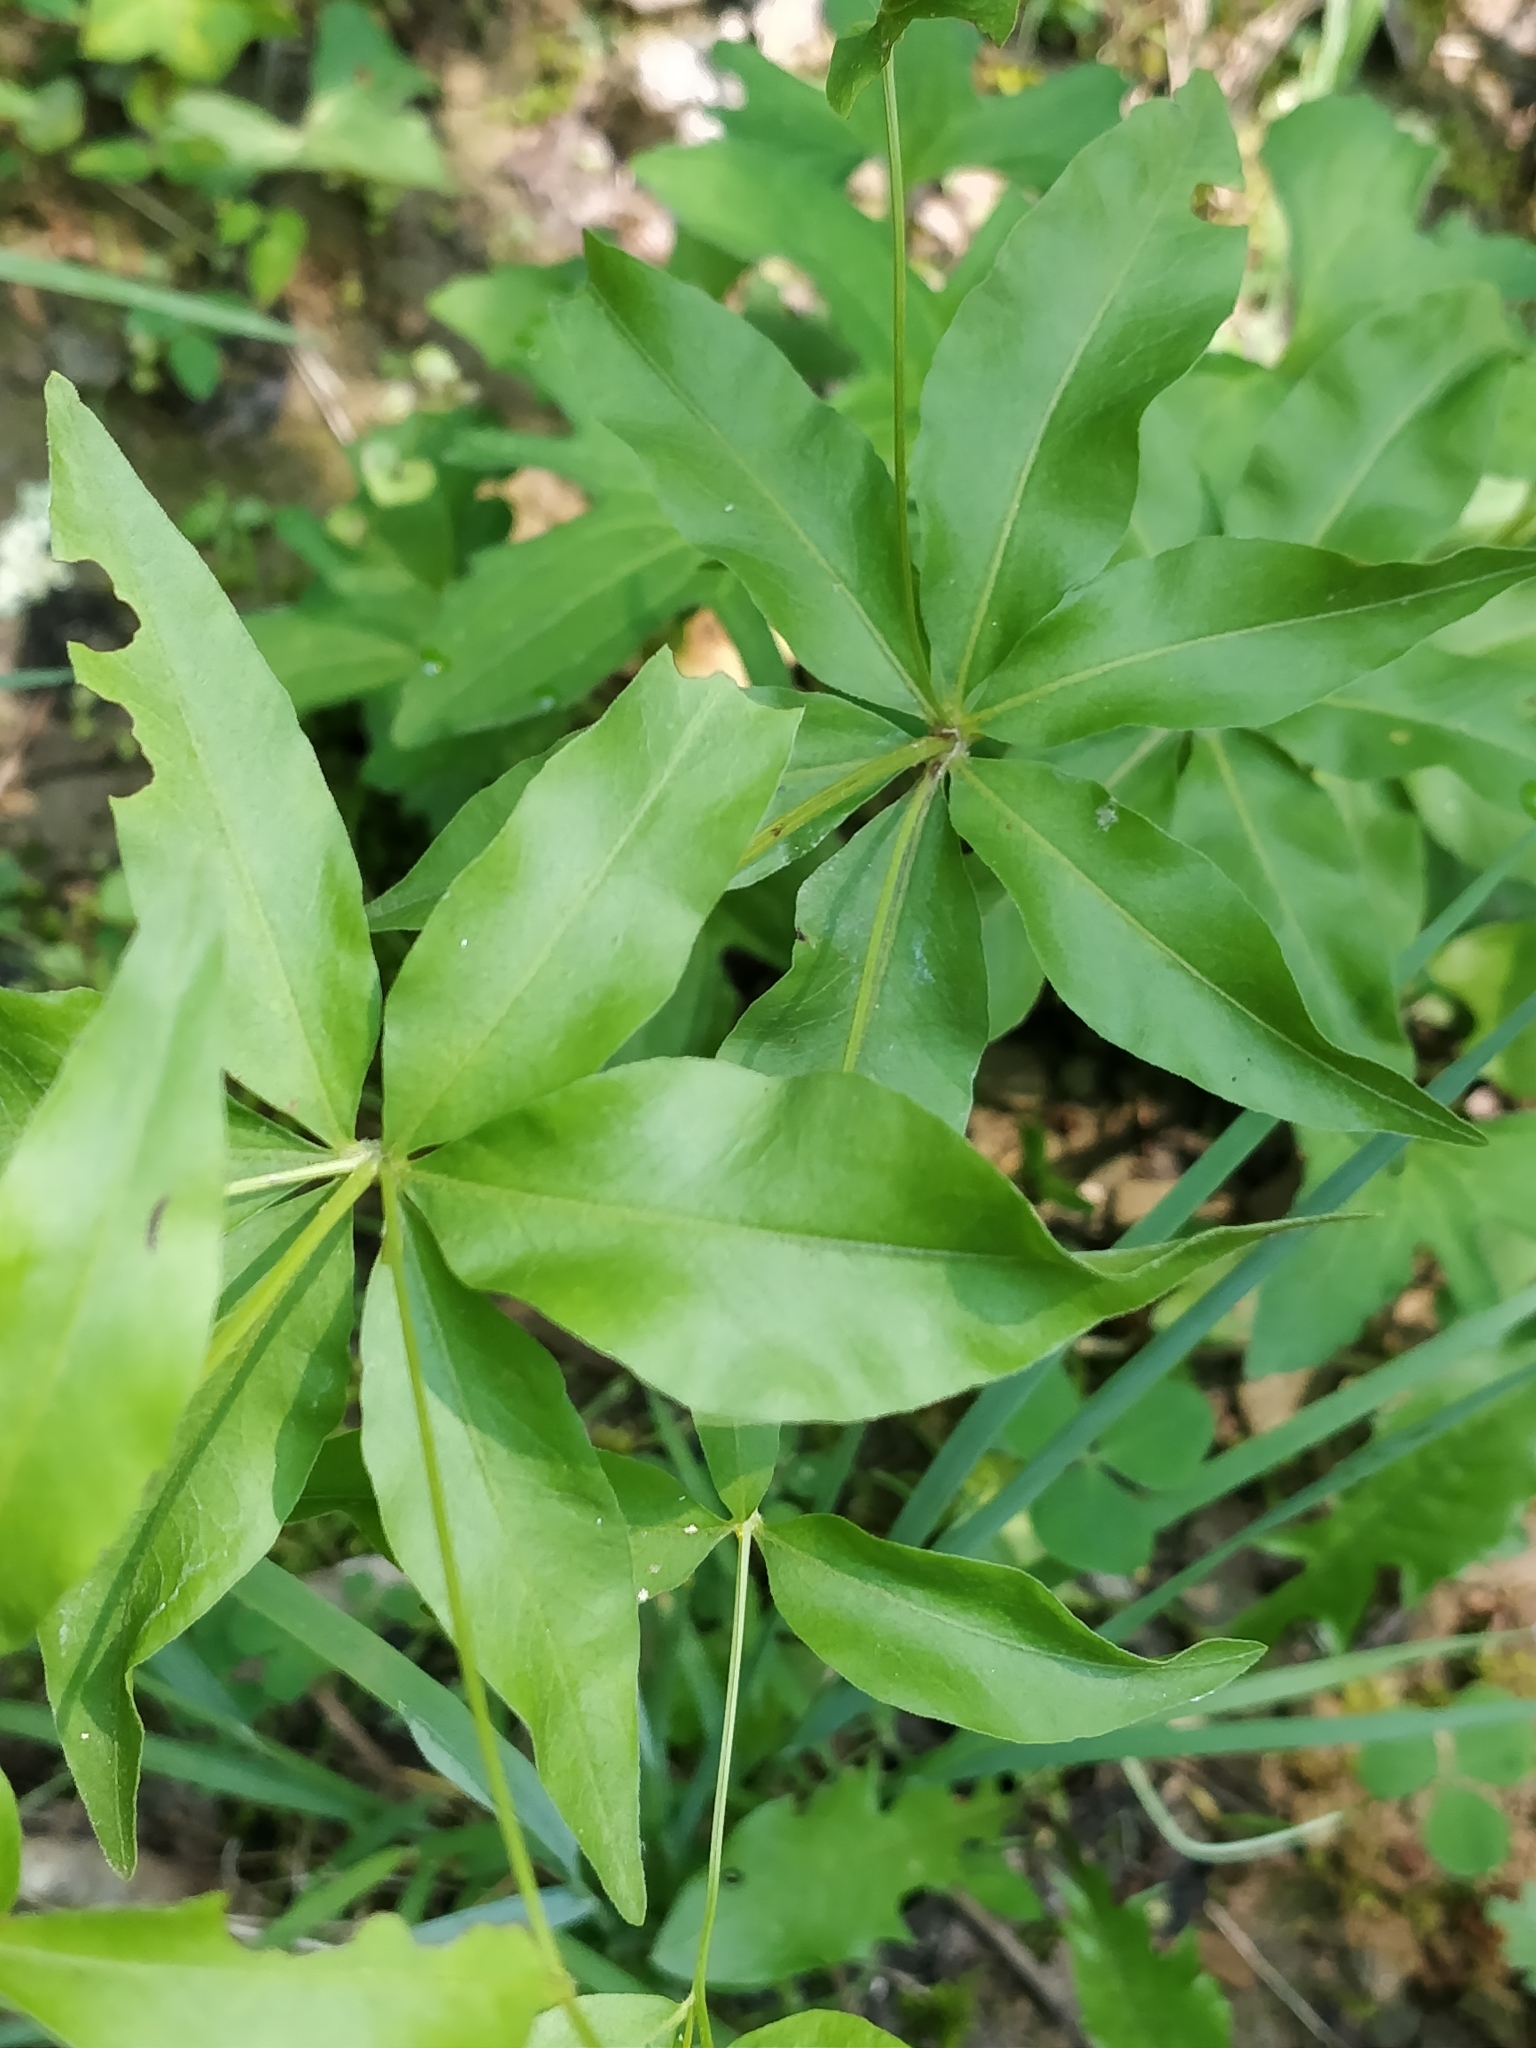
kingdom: Plantae
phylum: Tracheophyta
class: Magnoliopsida
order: Asterales
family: Asteraceae
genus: Coreopsis
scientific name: Coreopsis major
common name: Forest tickseed
